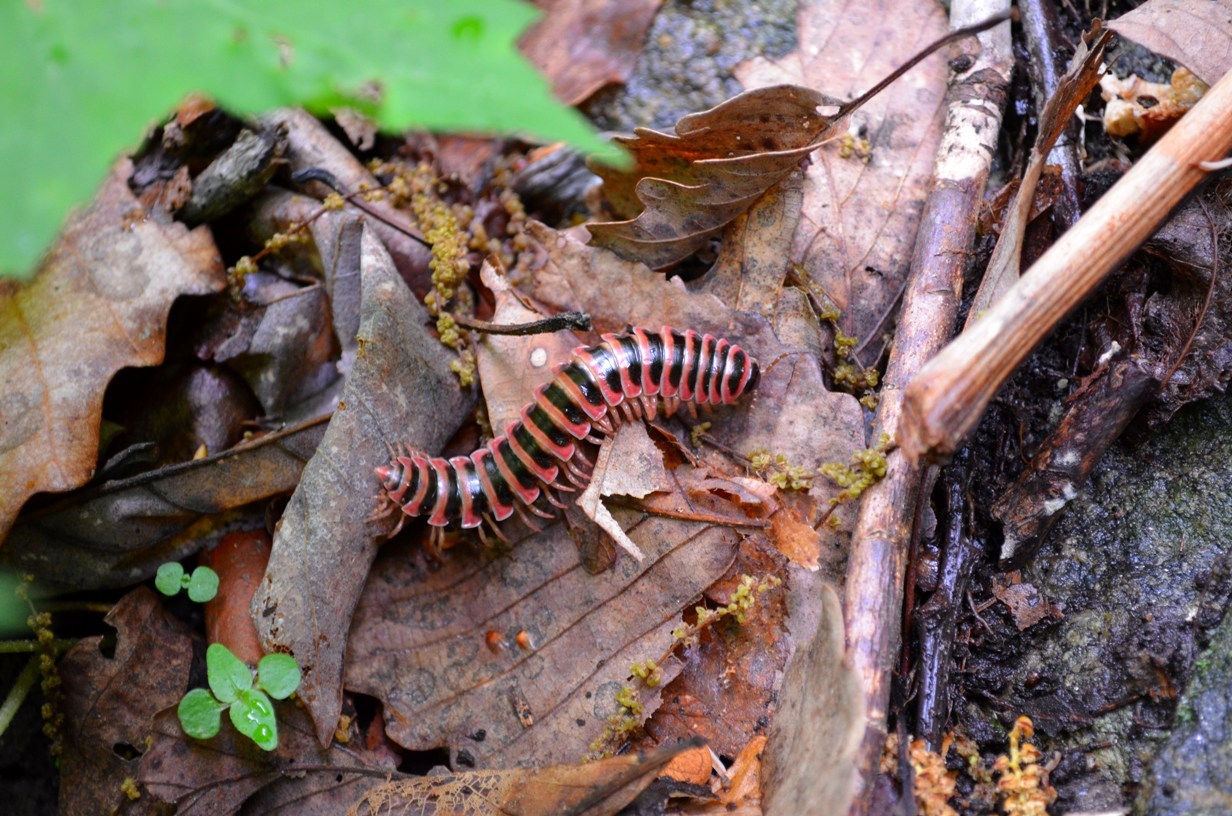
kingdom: Animalia
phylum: Arthropoda
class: Diplopoda
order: Polydesmida
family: Xystodesmidae
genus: Sigmoria
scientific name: Sigmoria latior
